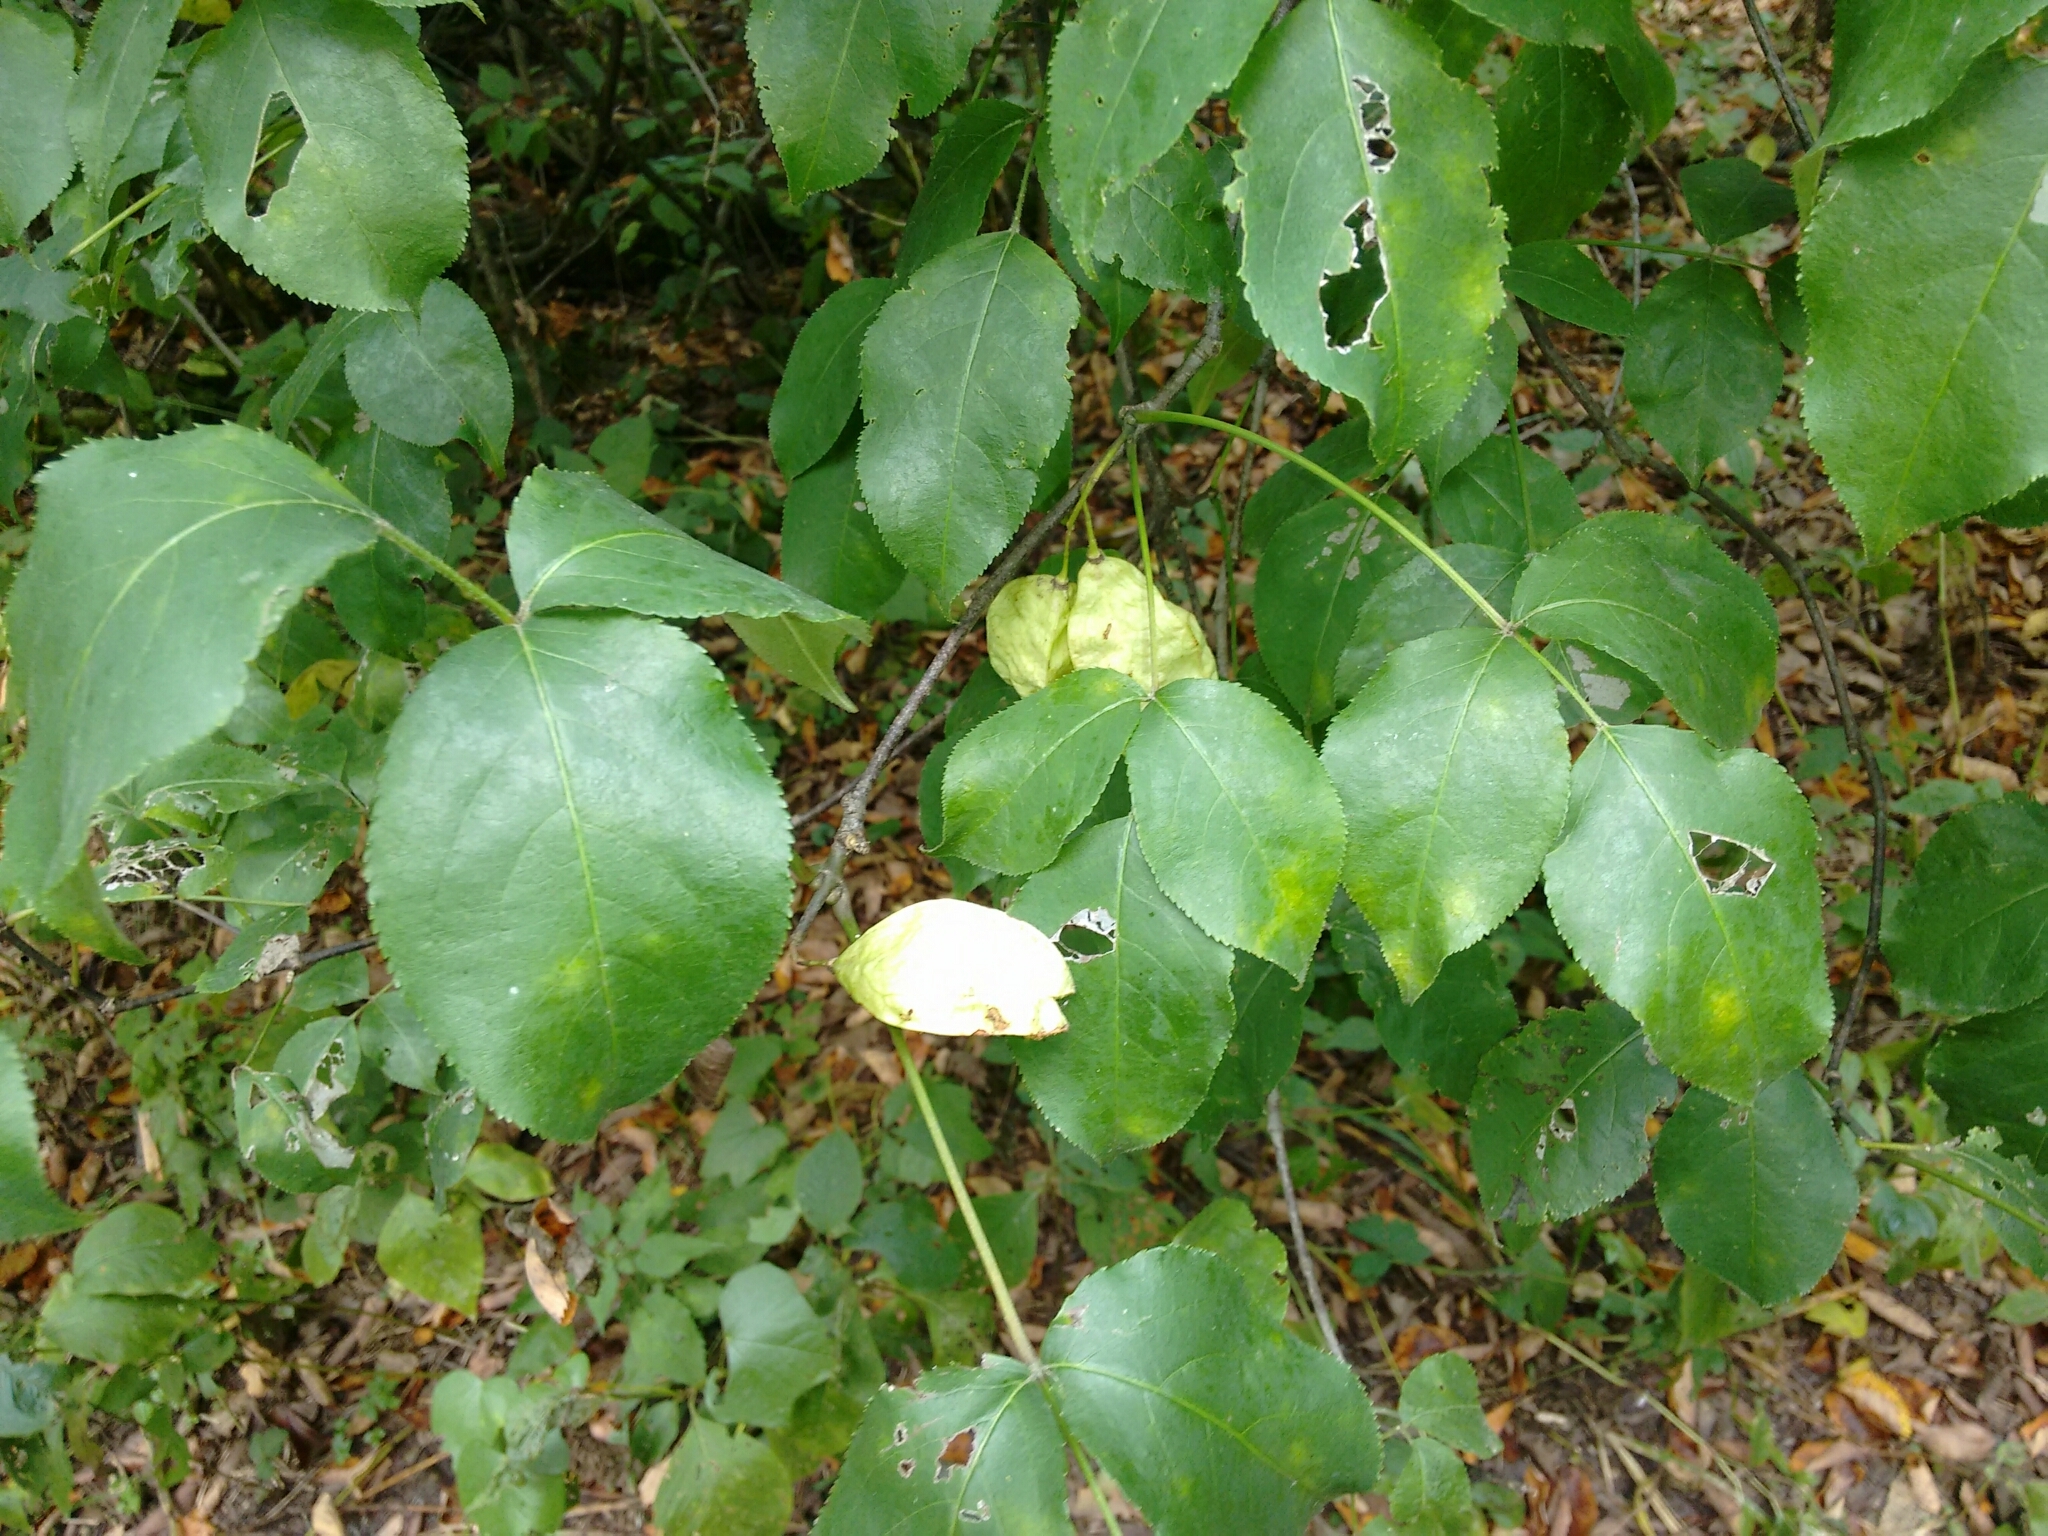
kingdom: Plantae
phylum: Tracheophyta
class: Magnoliopsida
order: Crossosomatales
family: Staphyleaceae
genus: Staphylea
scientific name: Staphylea trifolia
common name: American bladdernut
